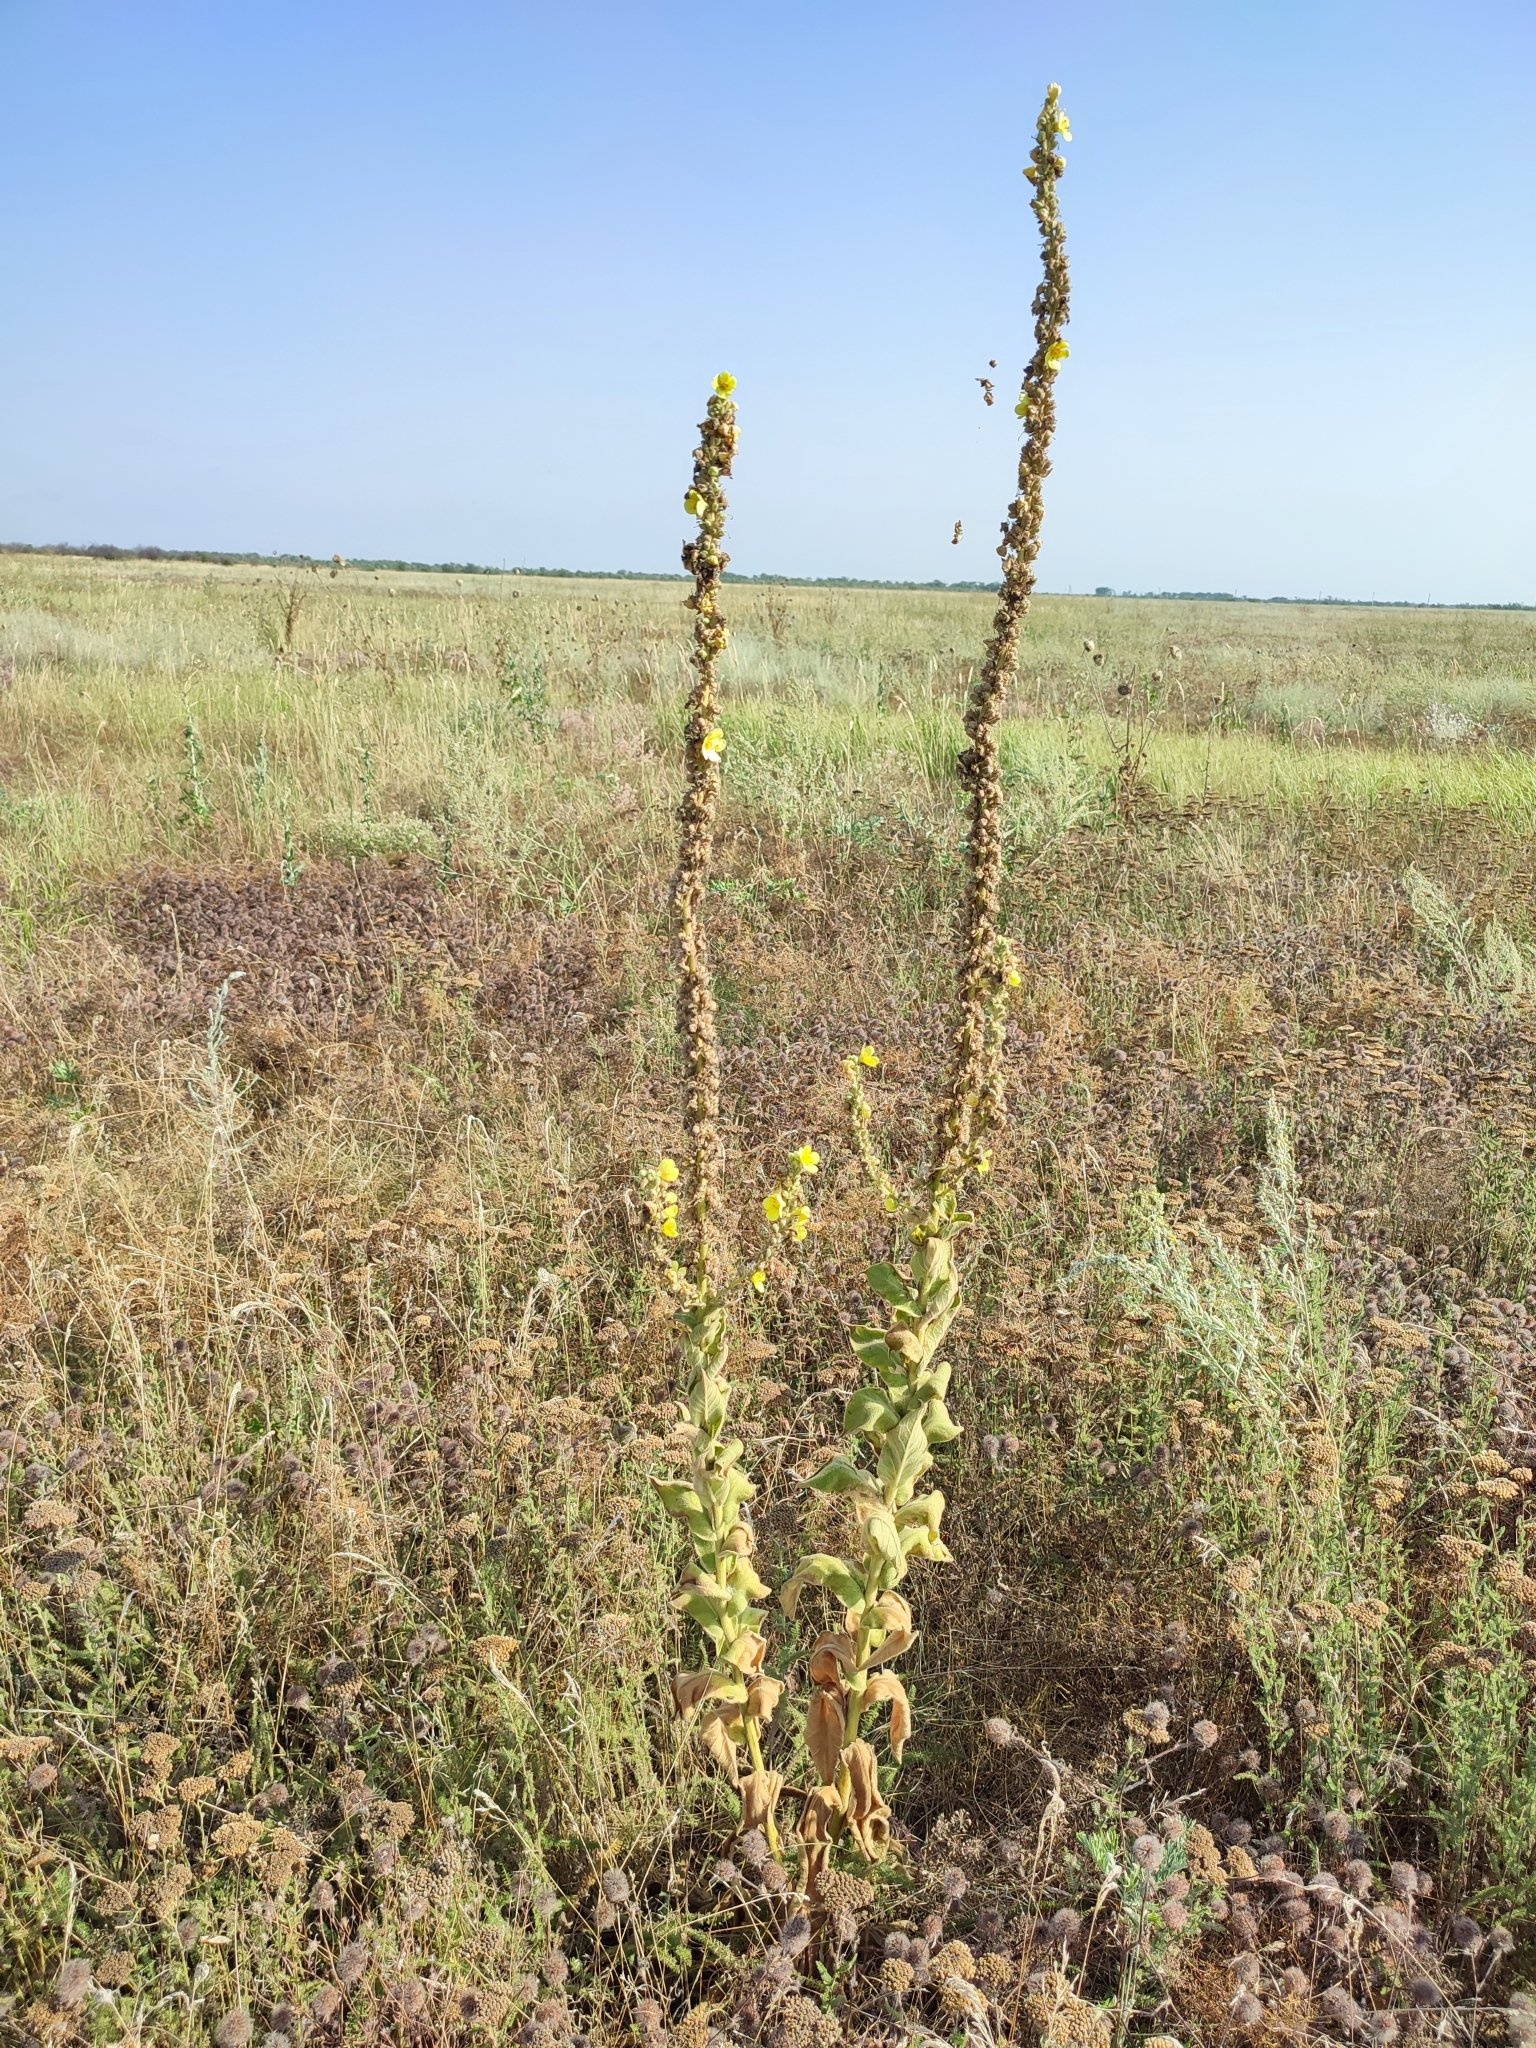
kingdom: Plantae
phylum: Tracheophyta
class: Magnoliopsida
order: Lamiales
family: Scrophulariaceae
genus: Verbascum
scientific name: Verbascum phlomoides
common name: Orange mullein
